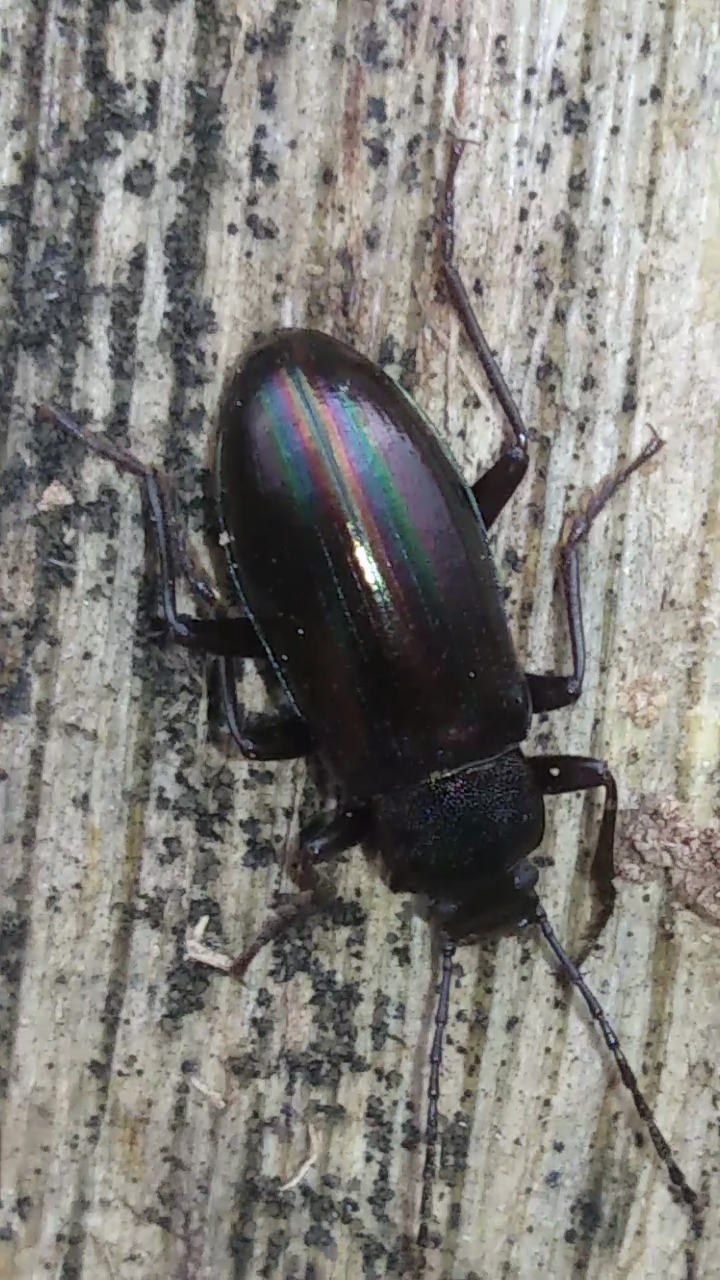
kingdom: Animalia
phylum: Arthropoda
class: Insecta
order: Coleoptera
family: Tenebrionidae
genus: Tarpela
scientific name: Tarpela micans
